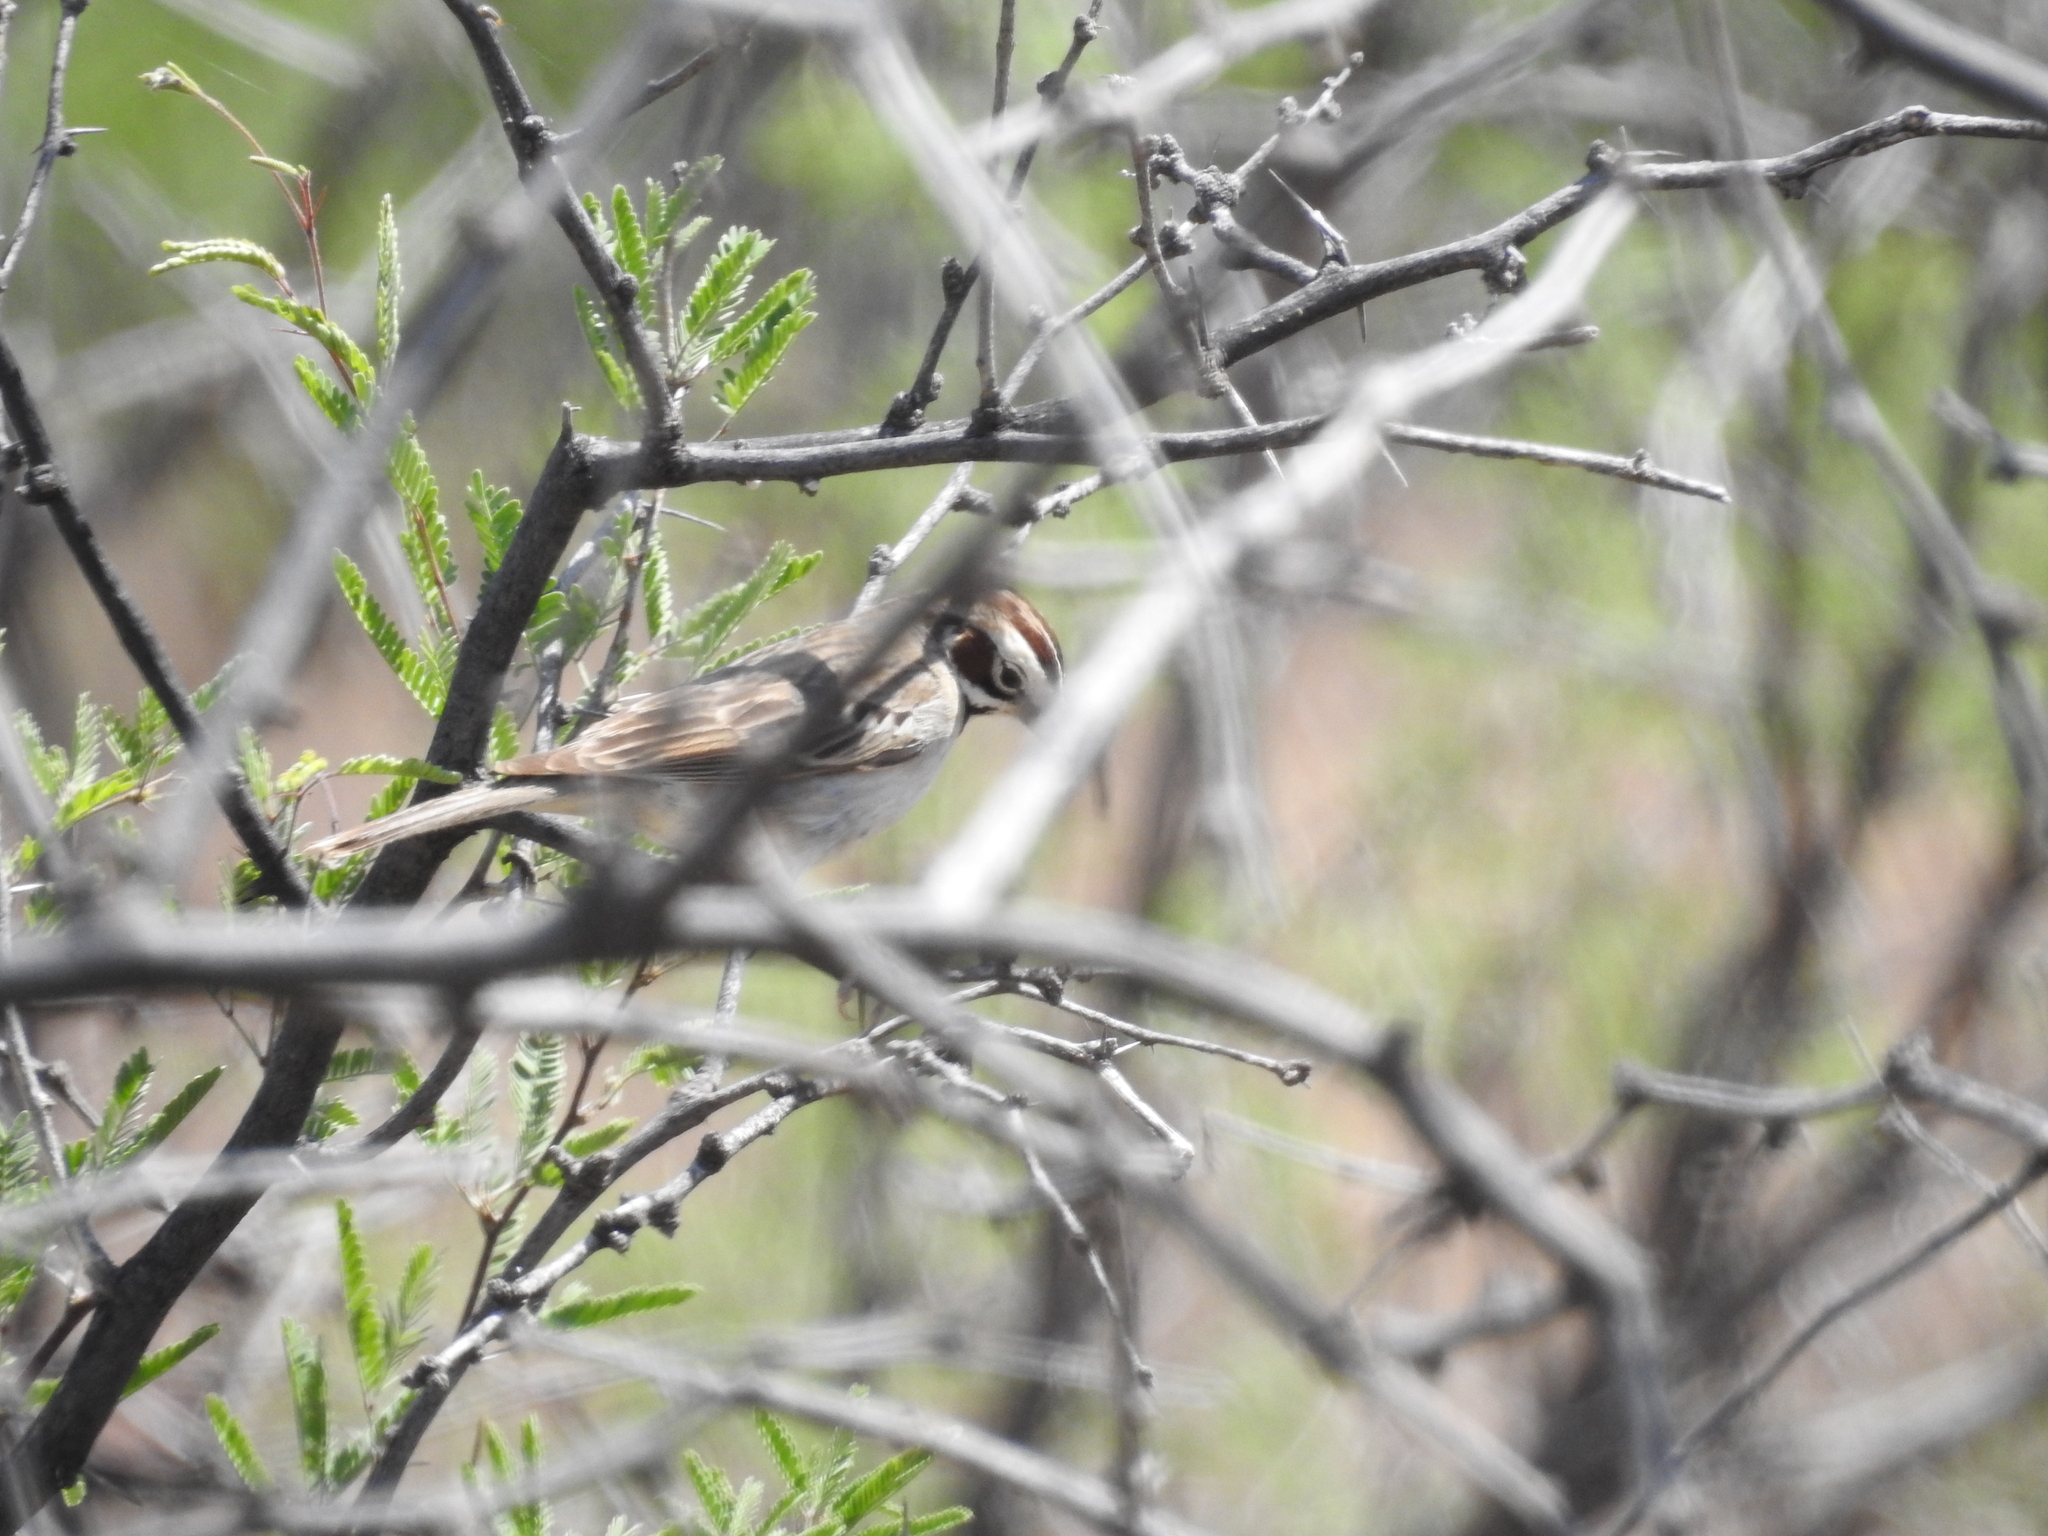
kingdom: Animalia
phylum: Chordata
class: Aves
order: Passeriformes
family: Passerellidae
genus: Chondestes
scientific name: Chondestes grammacus
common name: Lark sparrow
